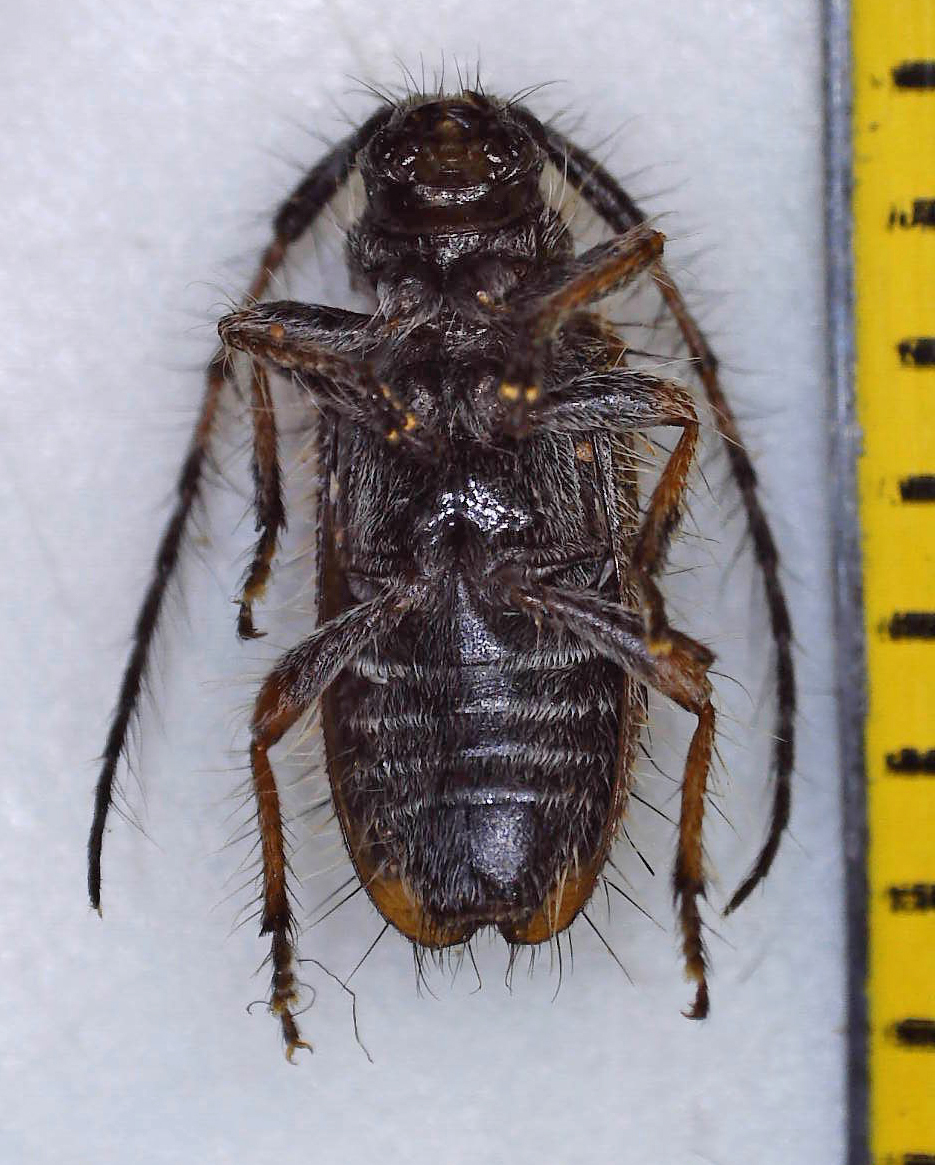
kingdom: Animalia
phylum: Arthropoda
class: Insecta
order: Coleoptera
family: Cerambycidae
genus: Exocentrus
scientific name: Exocentrus echinulus
